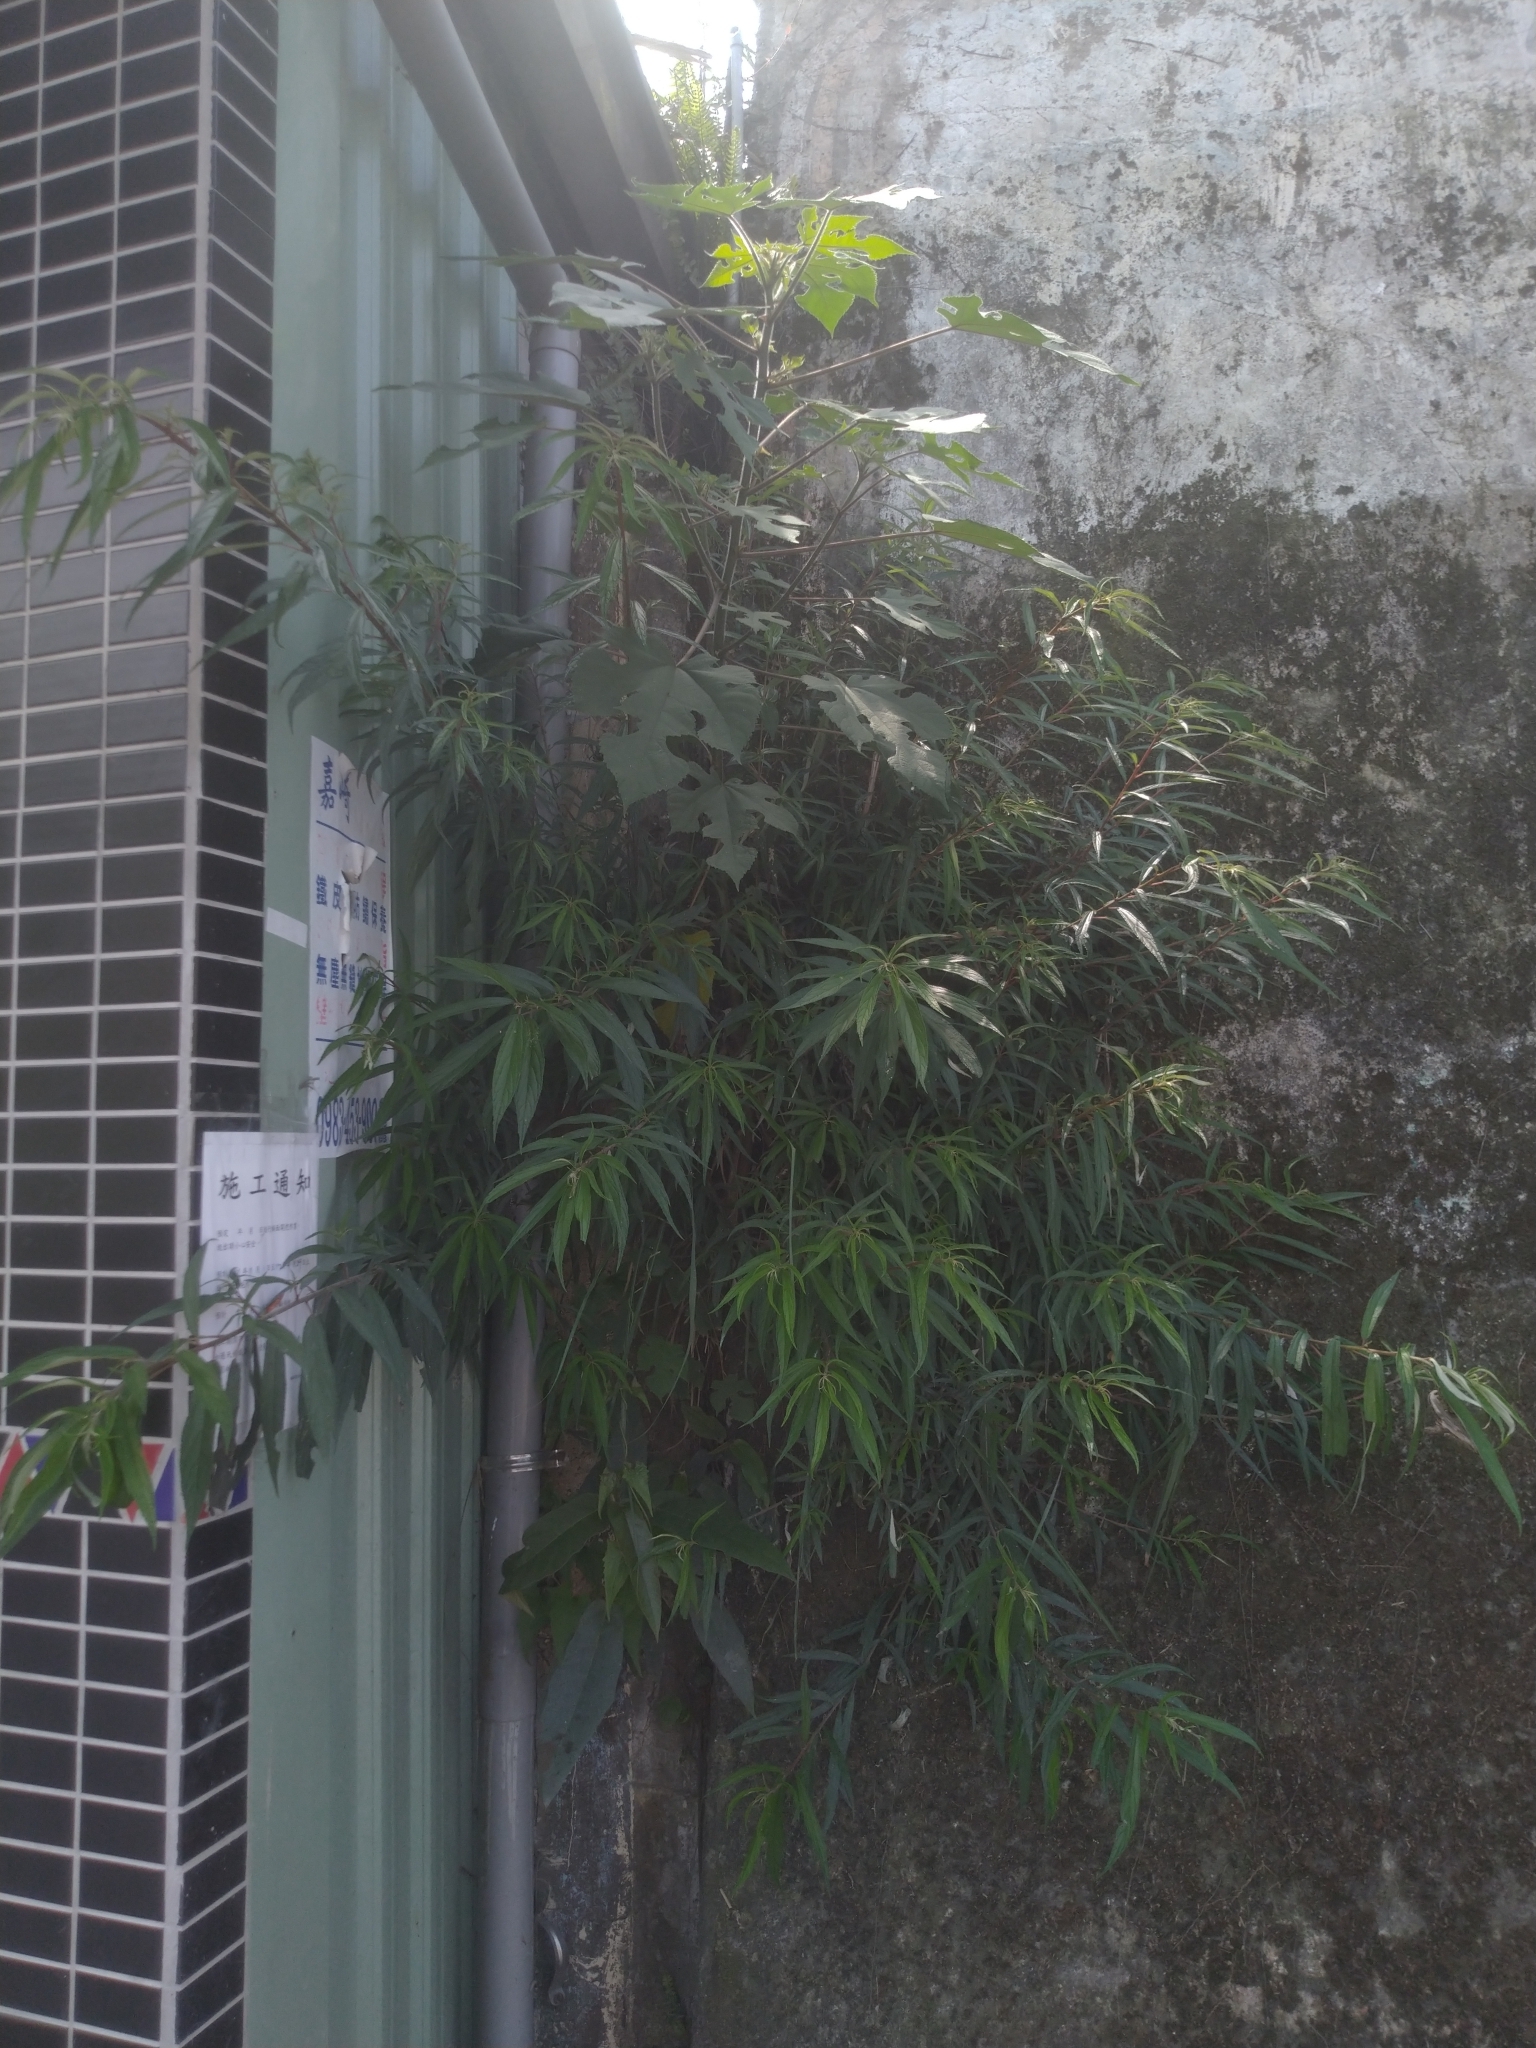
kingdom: Plantae
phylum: Tracheophyta
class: Magnoliopsida
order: Rosales
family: Urticaceae
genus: Debregeasia
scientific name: Debregeasia orientalis
